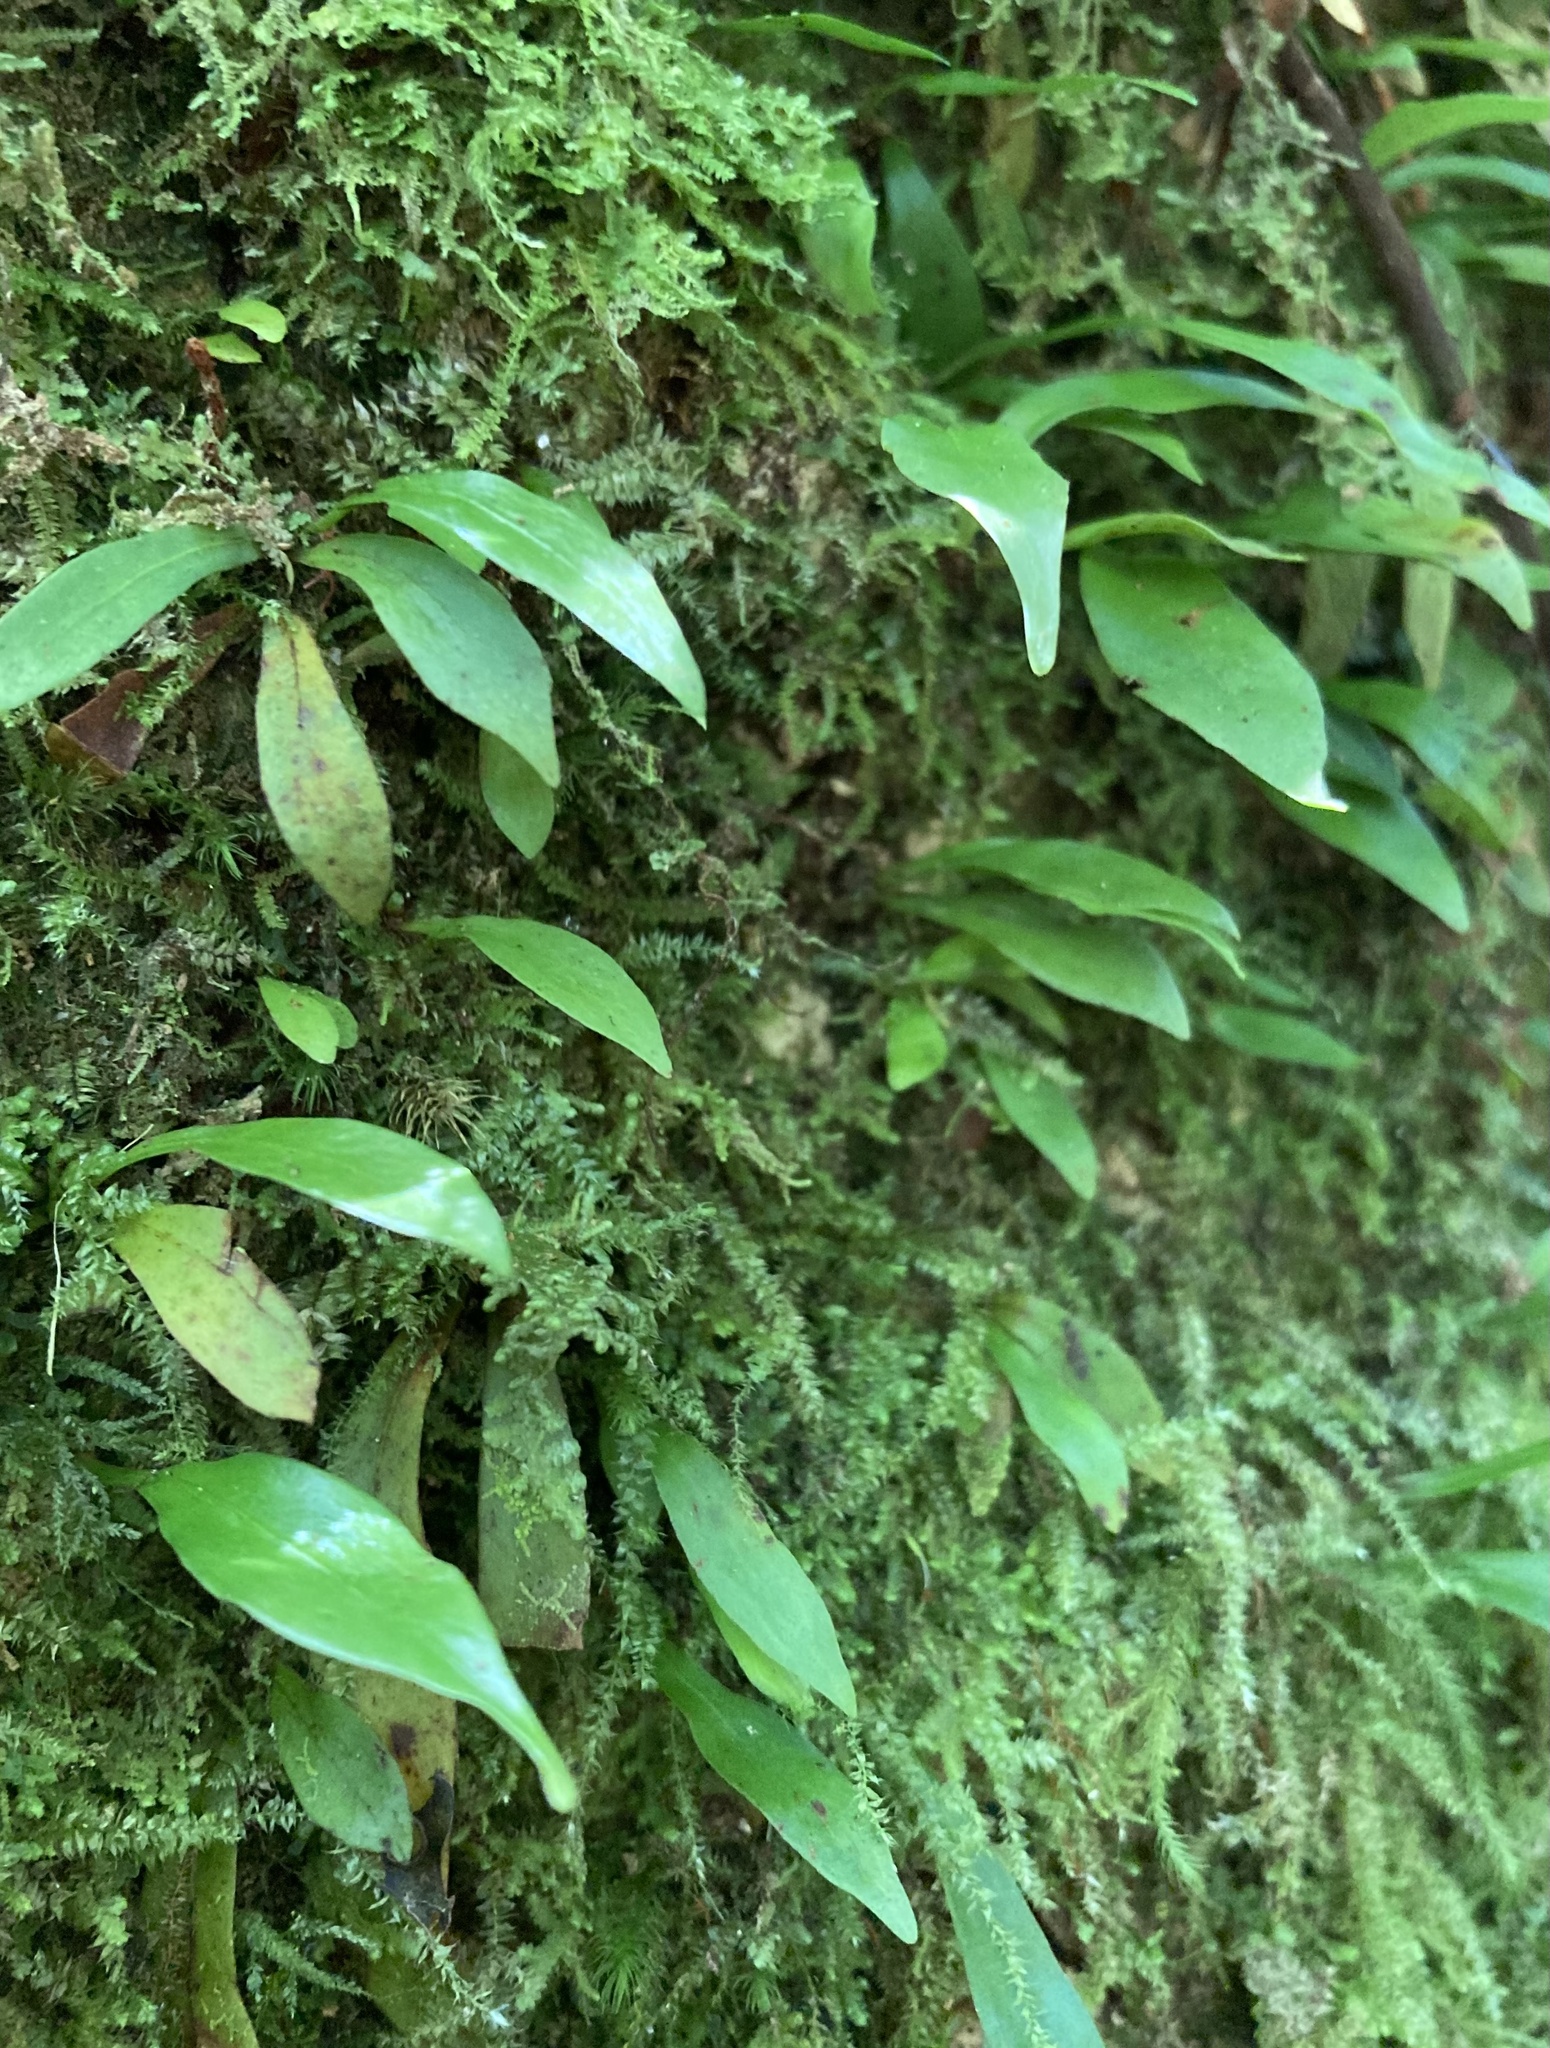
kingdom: Plantae
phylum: Tracheophyta
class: Polypodiopsida
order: Polypodiales
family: Polypodiaceae
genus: Loxogramme
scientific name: Loxogramme dictyopteris
